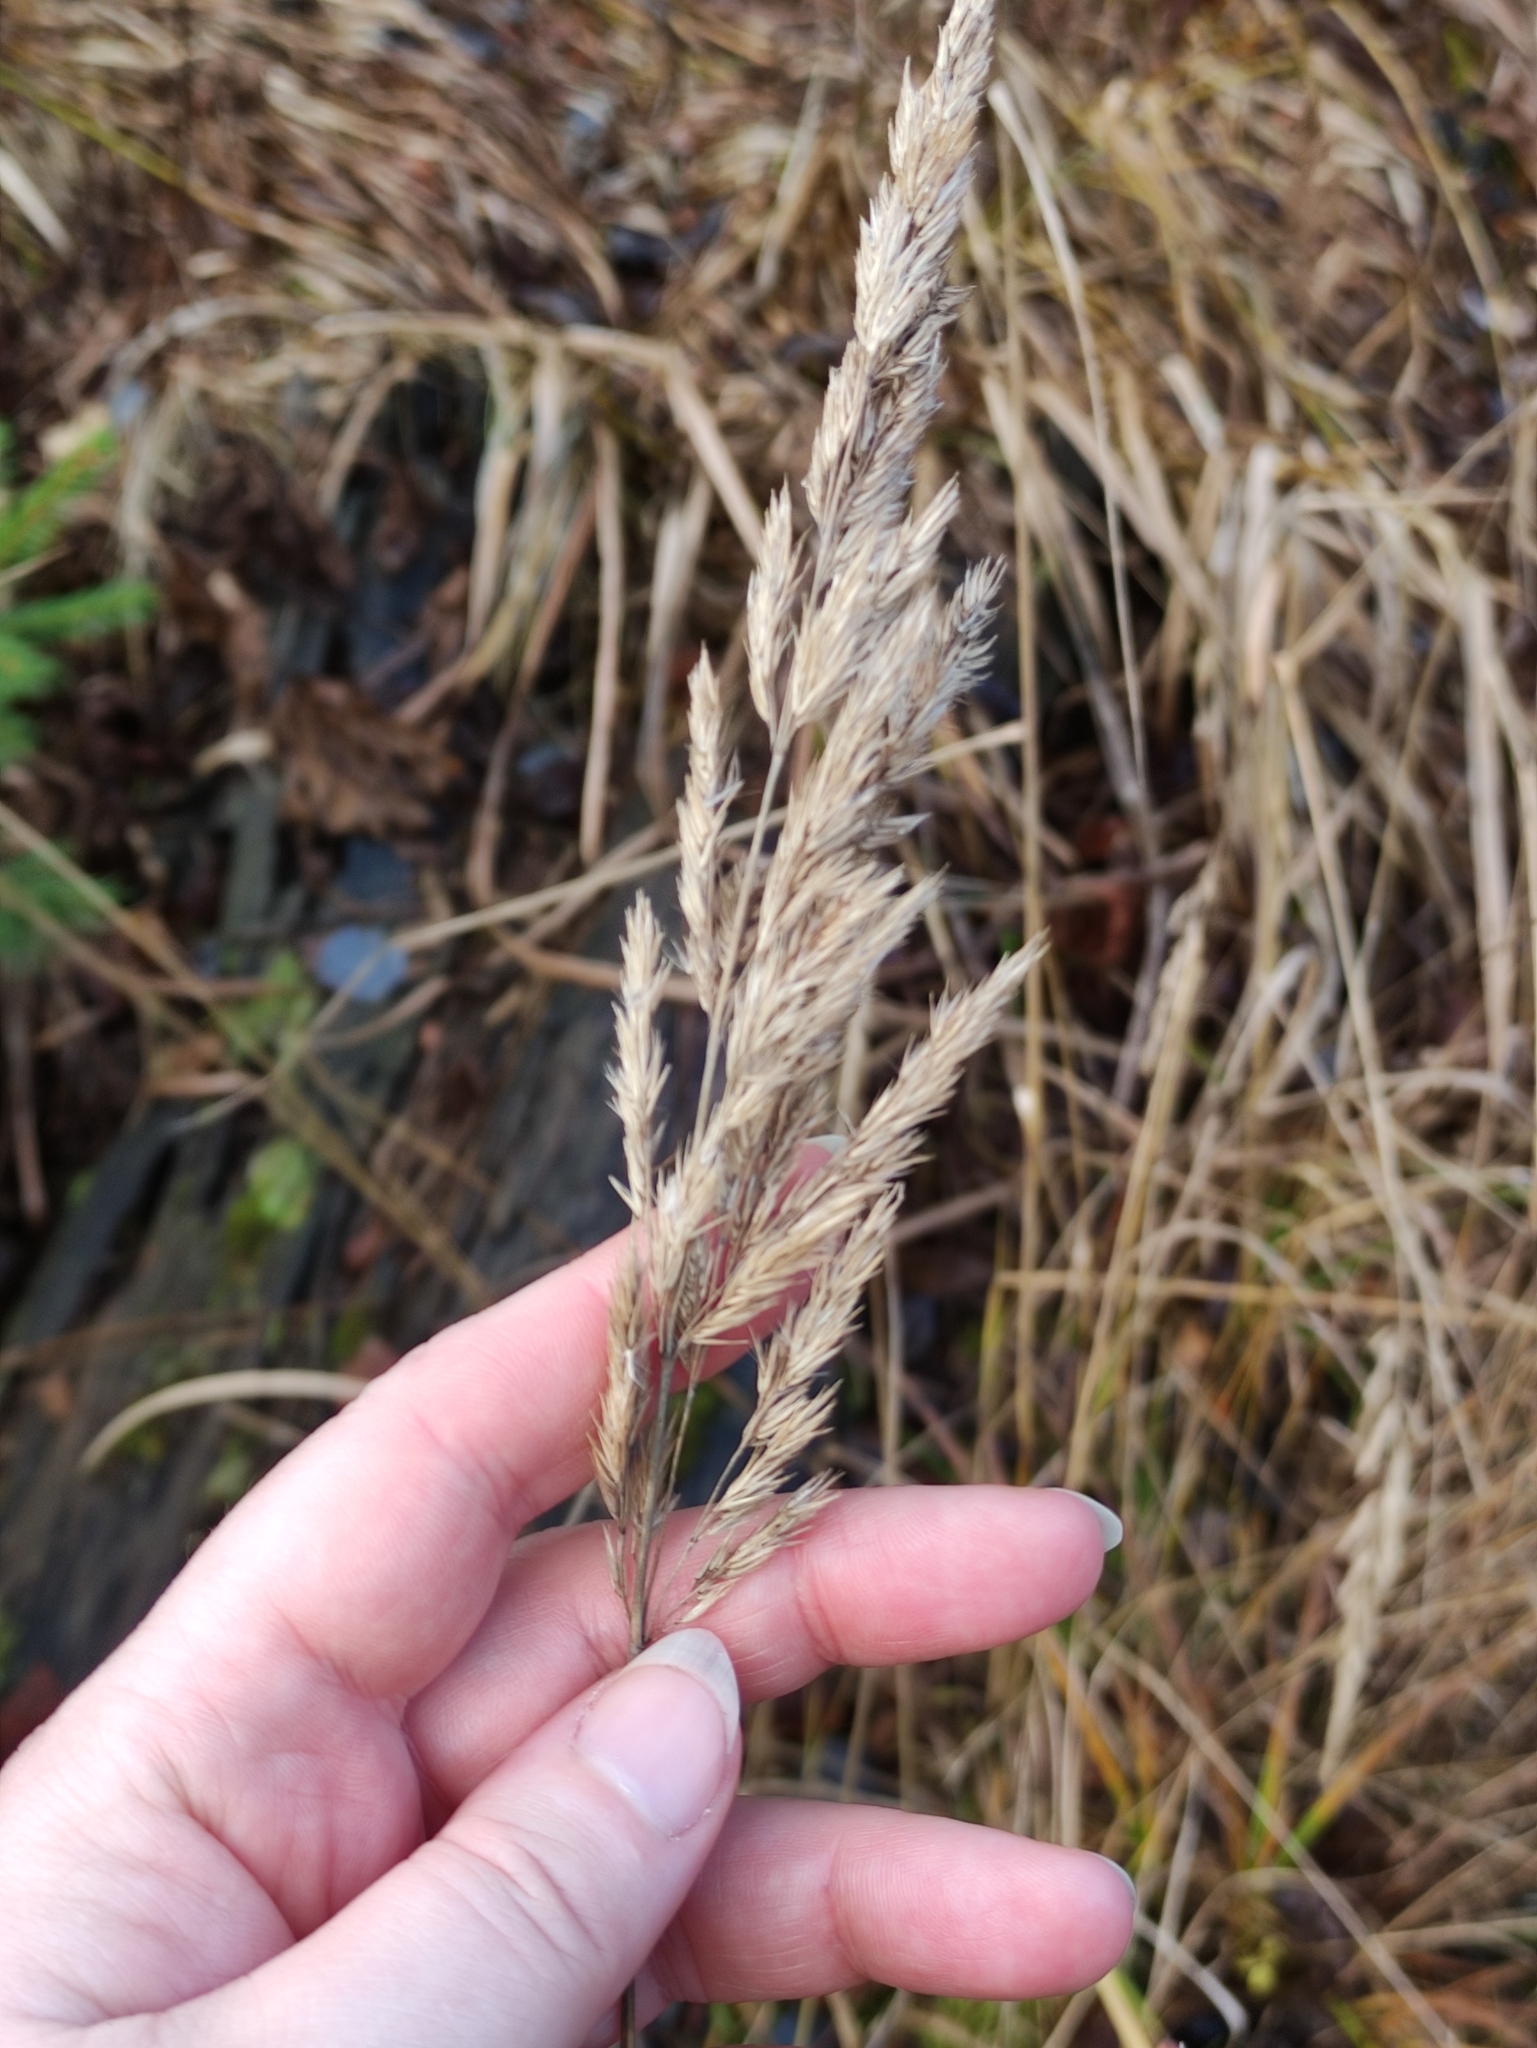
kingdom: Plantae
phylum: Tracheophyta
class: Liliopsida
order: Poales
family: Poaceae
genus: Calamagrostis
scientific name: Calamagrostis epigejos
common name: Wood small-reed
